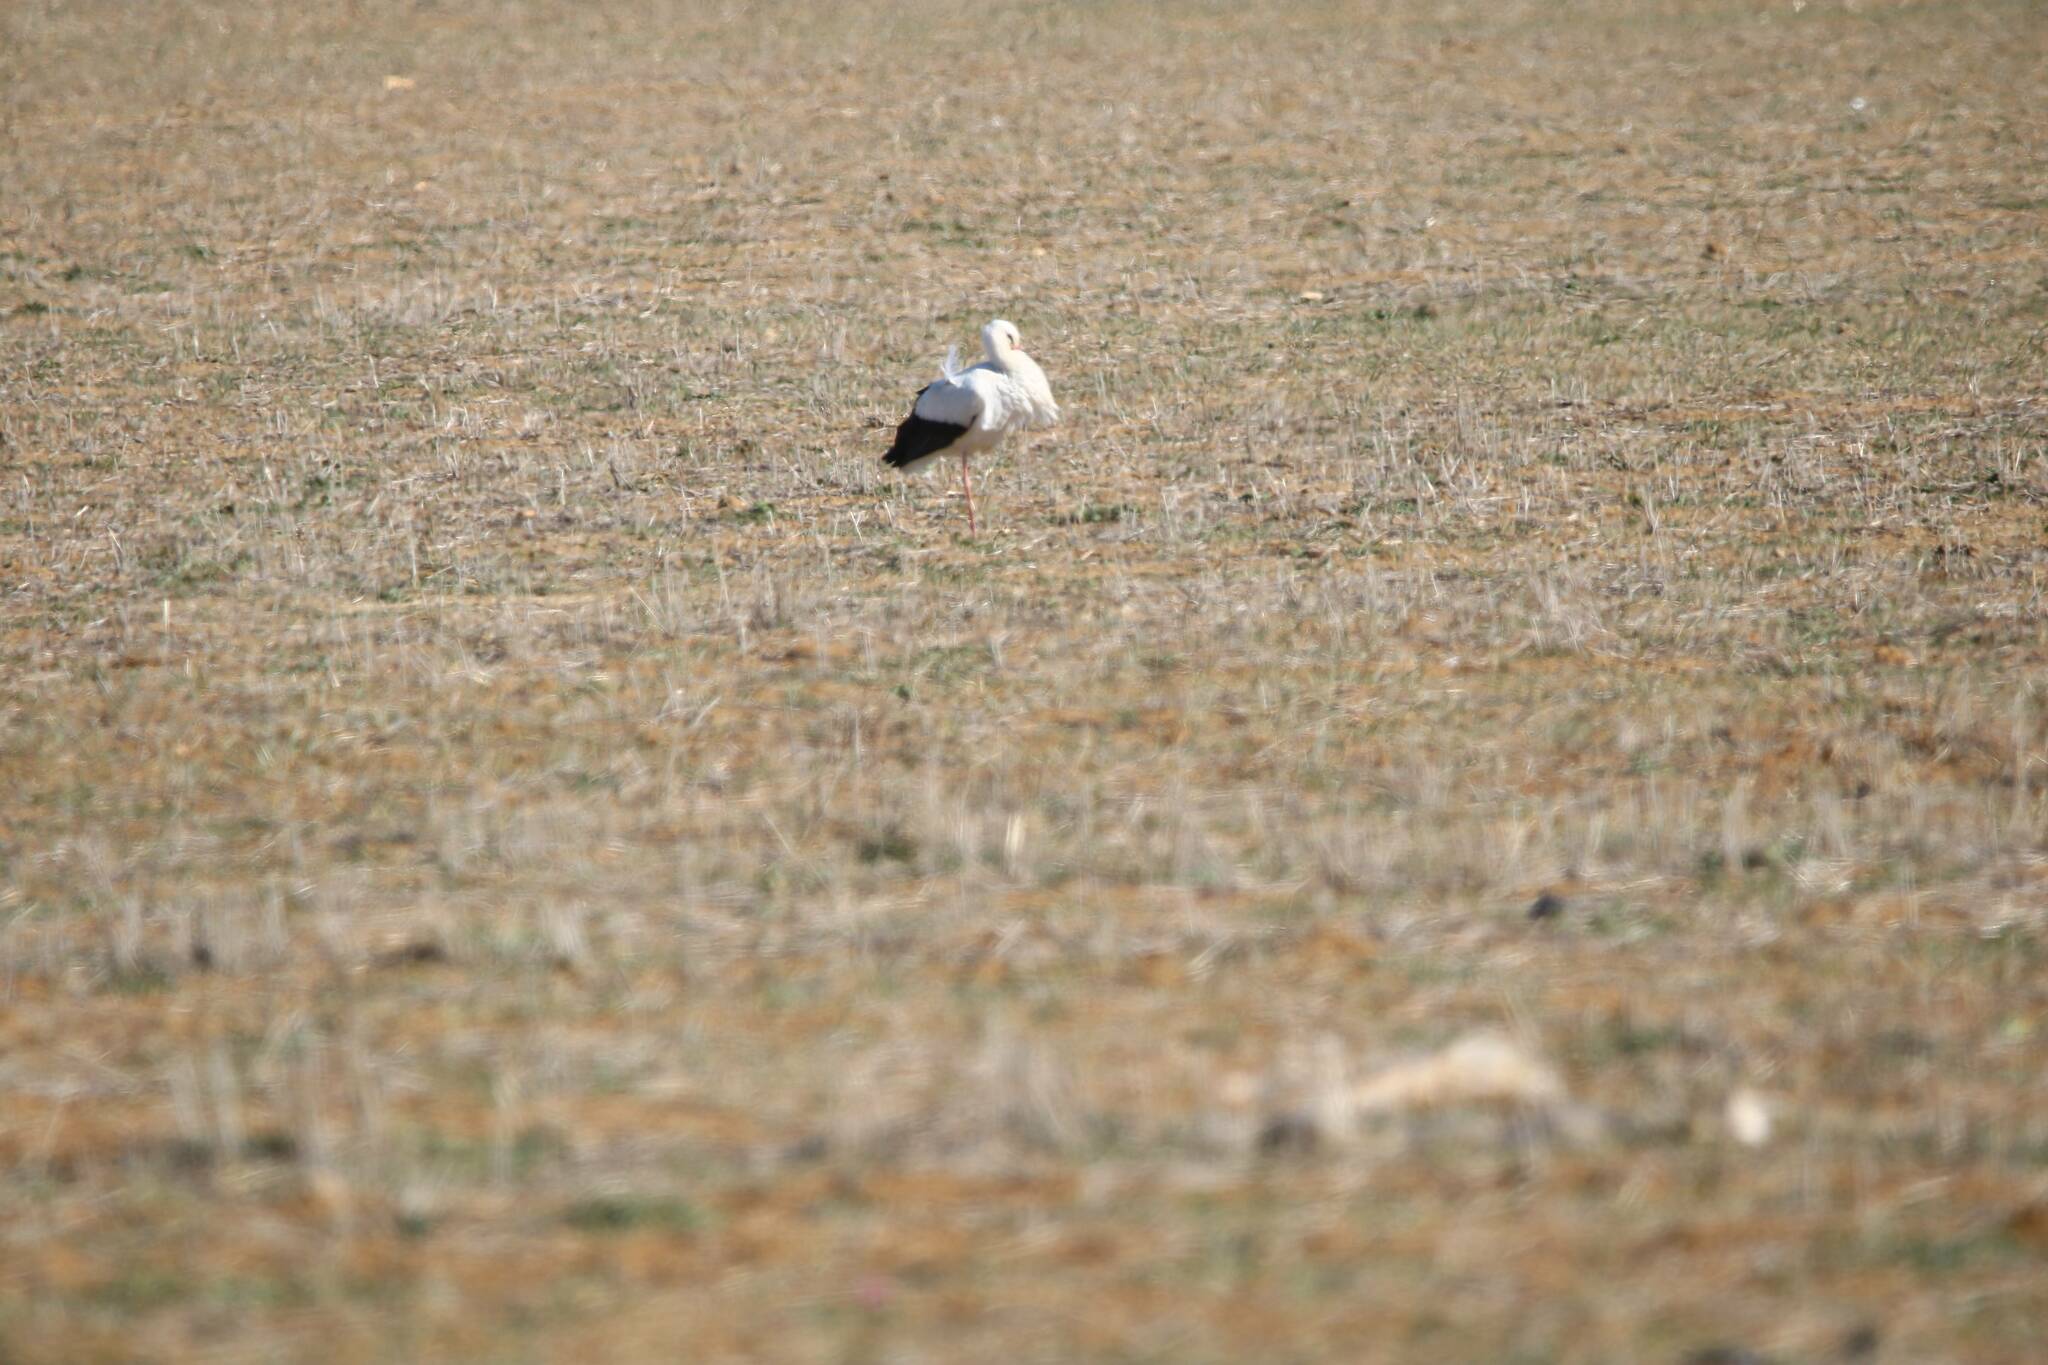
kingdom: Animalia
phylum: Chordata
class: Aves
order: Ciconiiformes
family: Ciconiidae
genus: Ciconia
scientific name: Ciconia ciconia
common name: White stork
